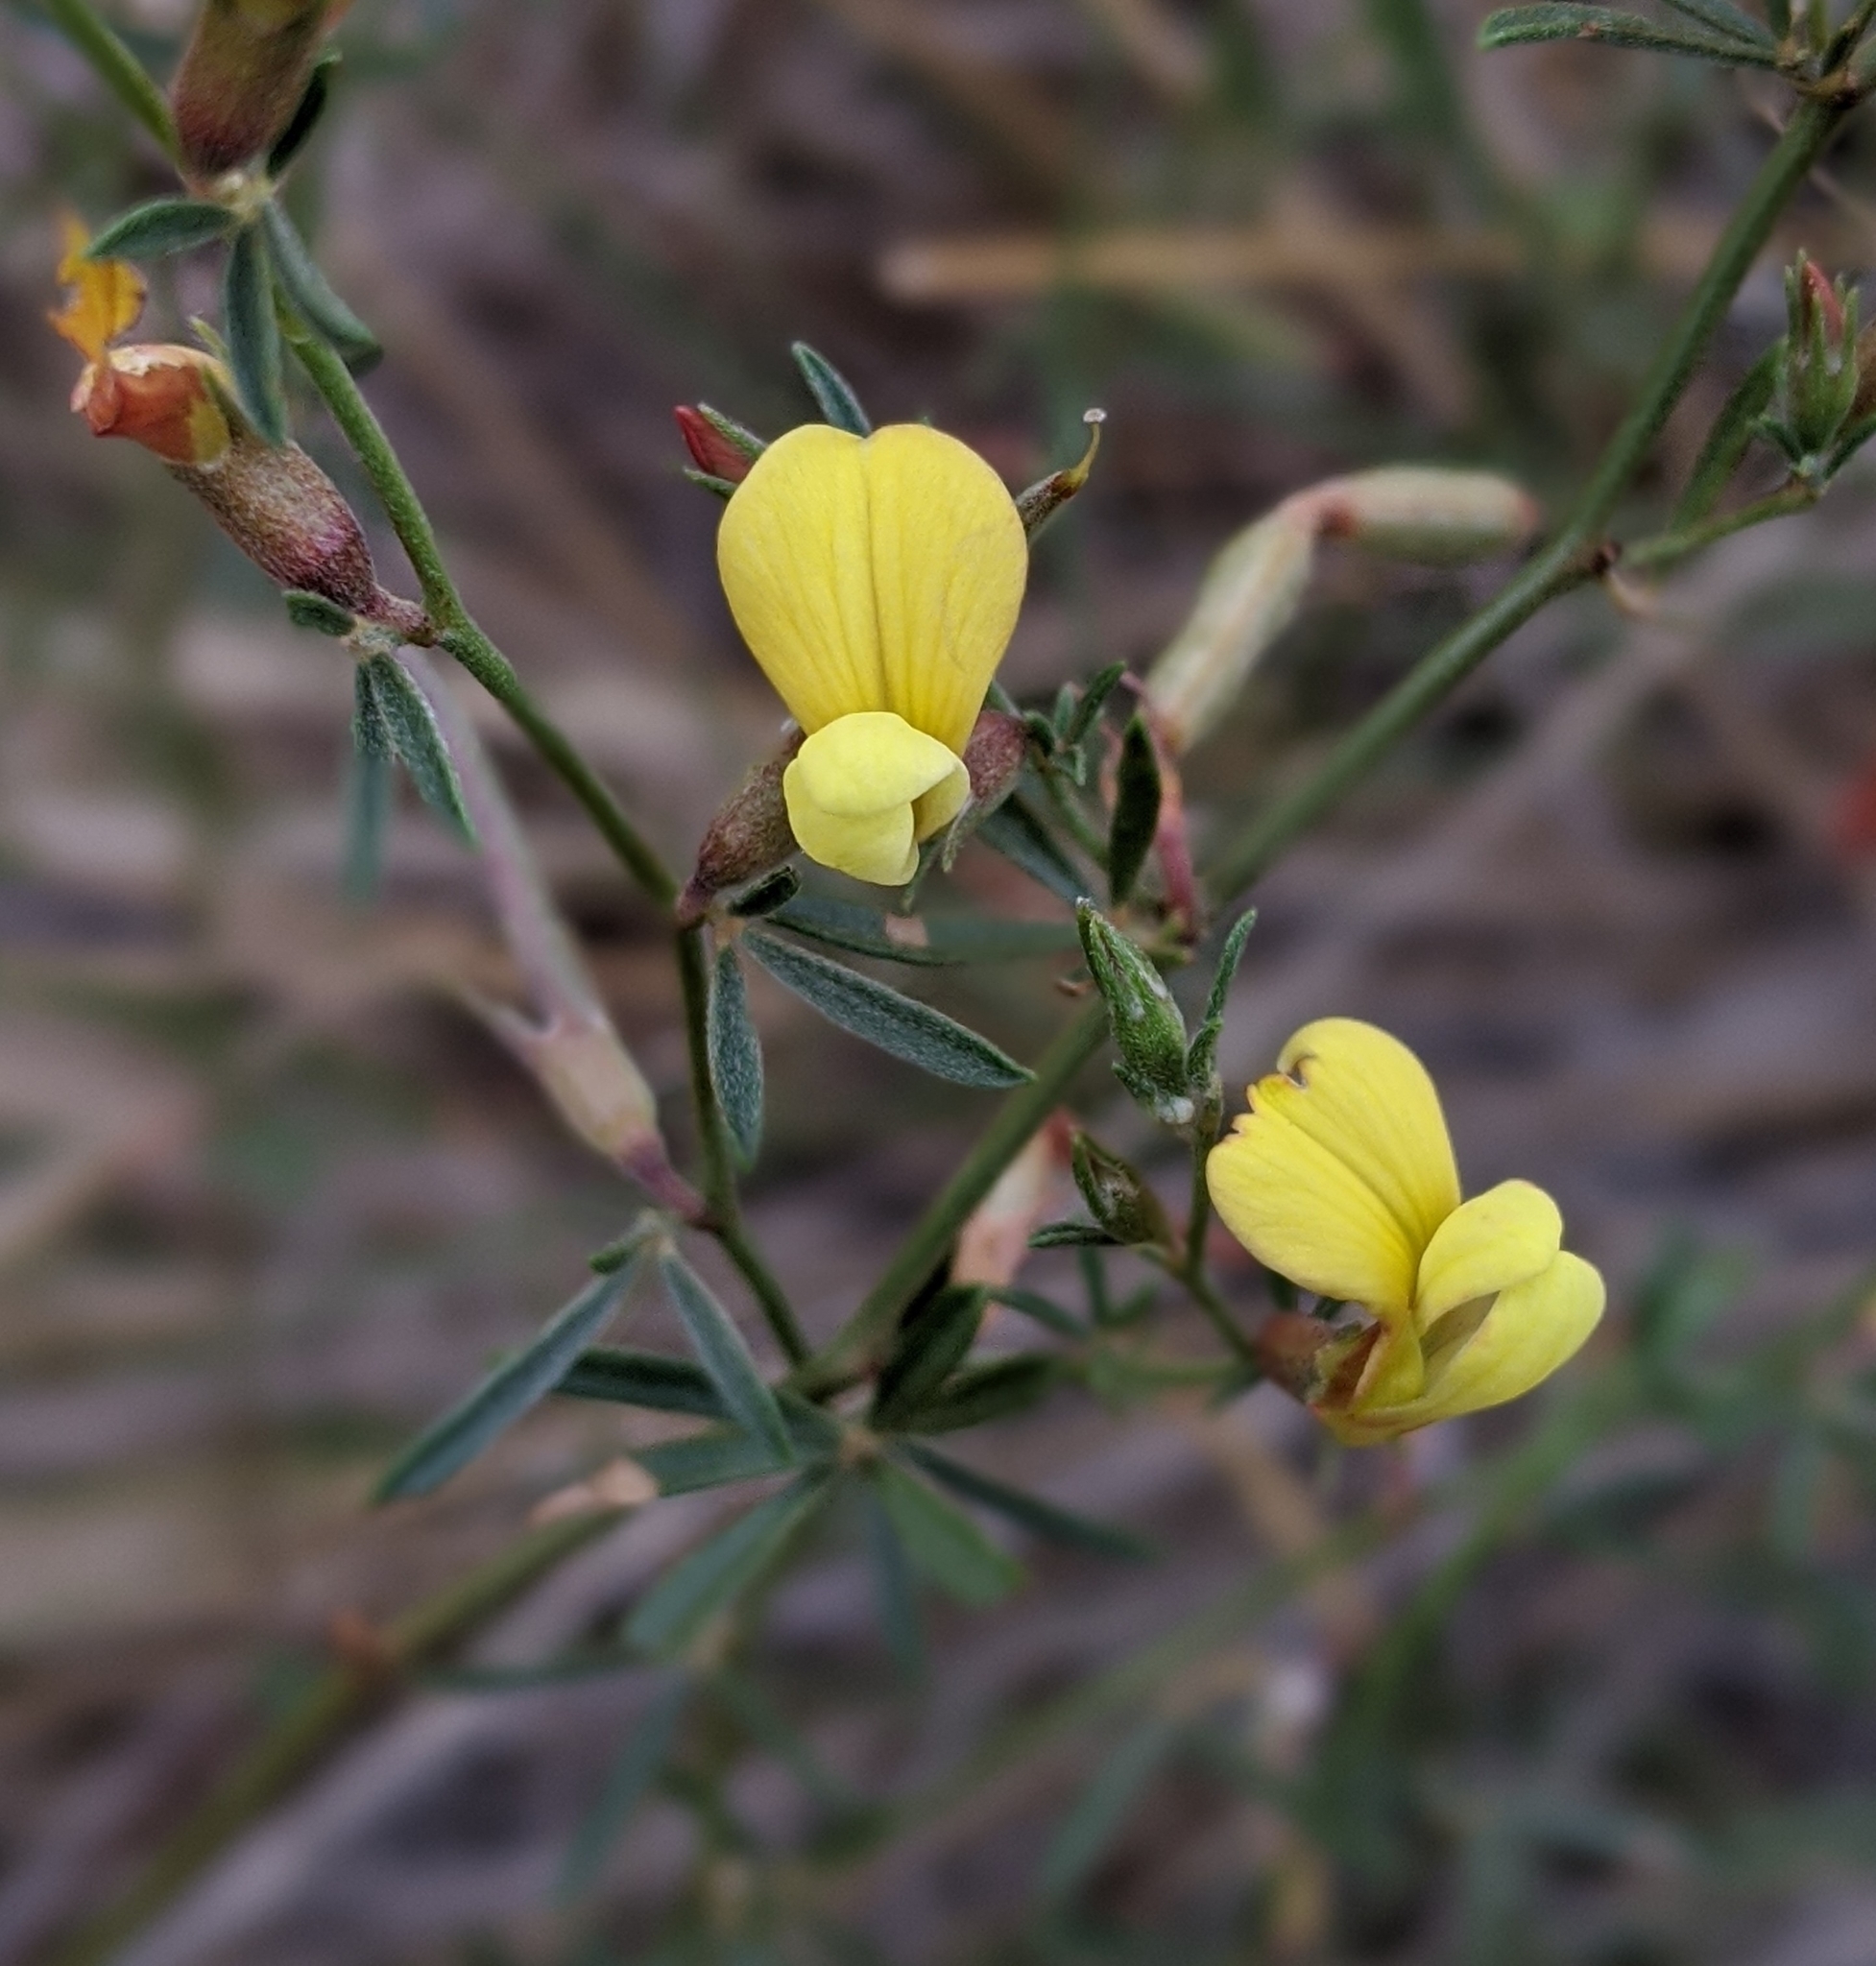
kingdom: Plantae
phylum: Tracheophyta
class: Magnoliopsida
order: Fabales
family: Fabaceae
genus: Acmispon
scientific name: Acmispon wrightii
